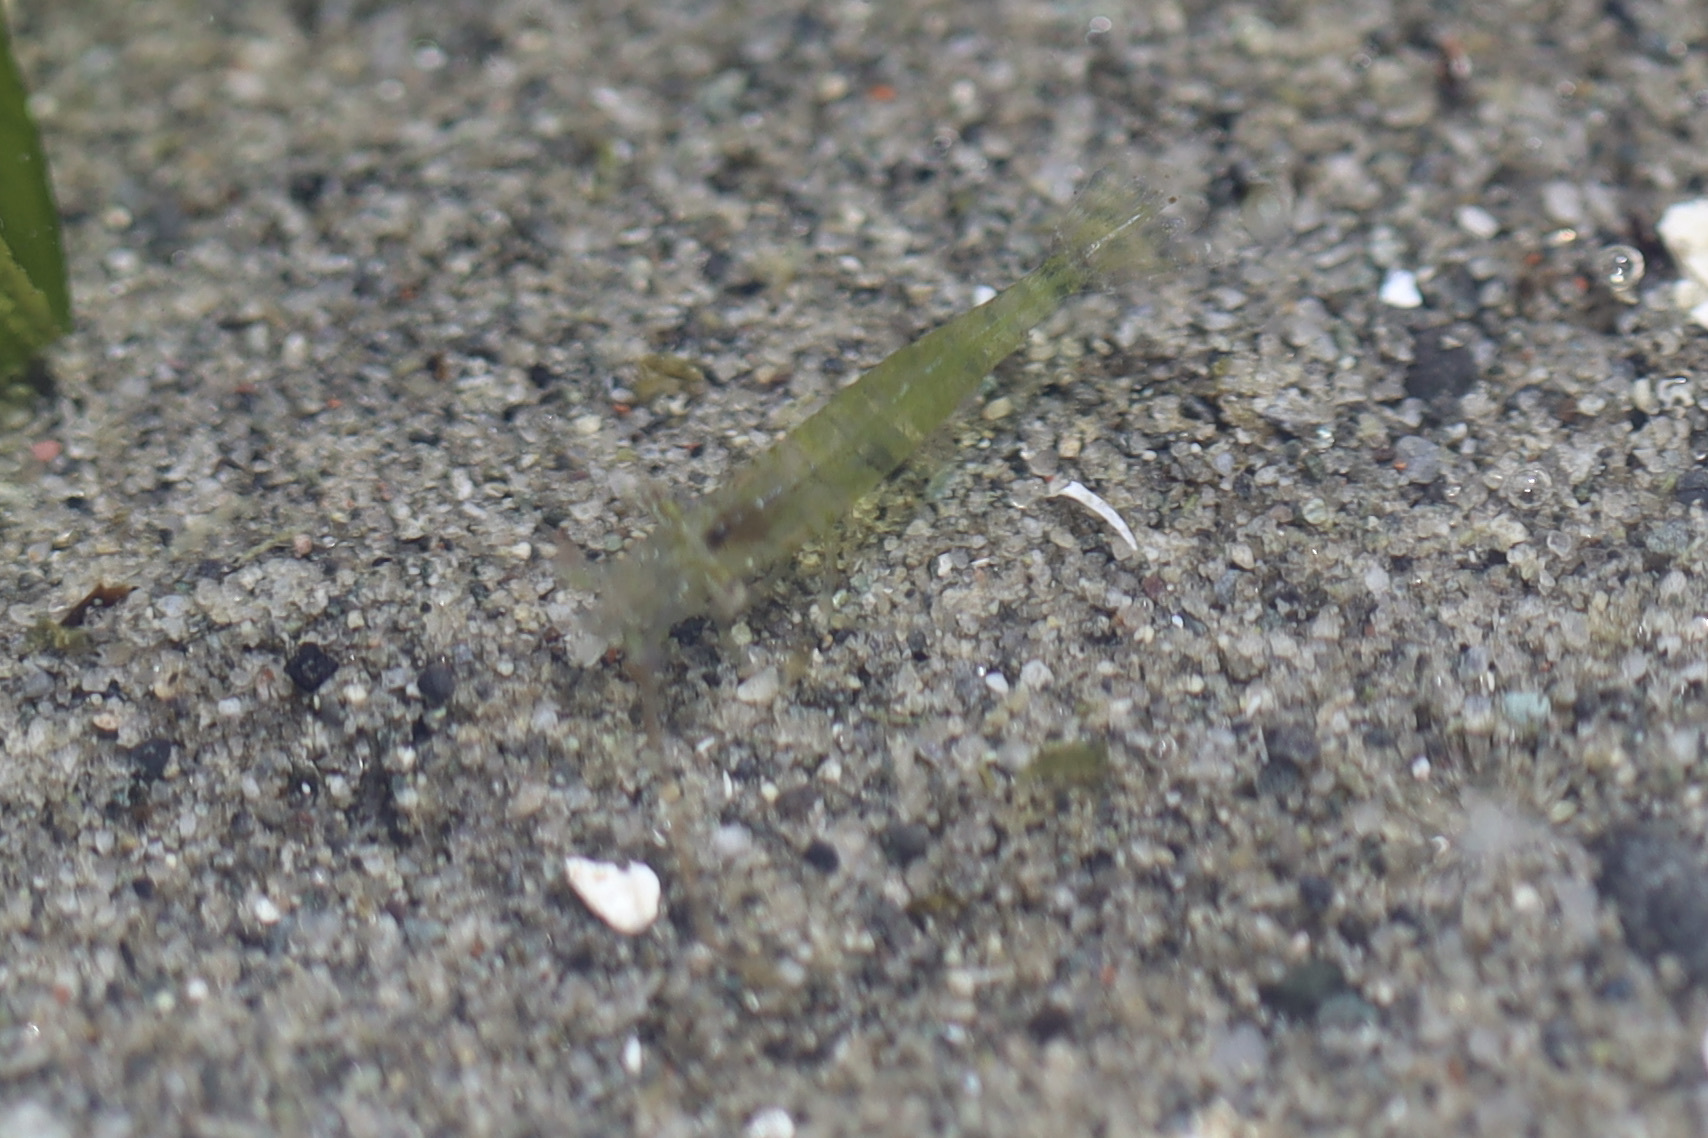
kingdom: Animalia
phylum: Arthropoda
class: Malacostraca
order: Decapoda
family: Thoridae
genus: Heptacarpus
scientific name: Heptacarpus sitchensis
